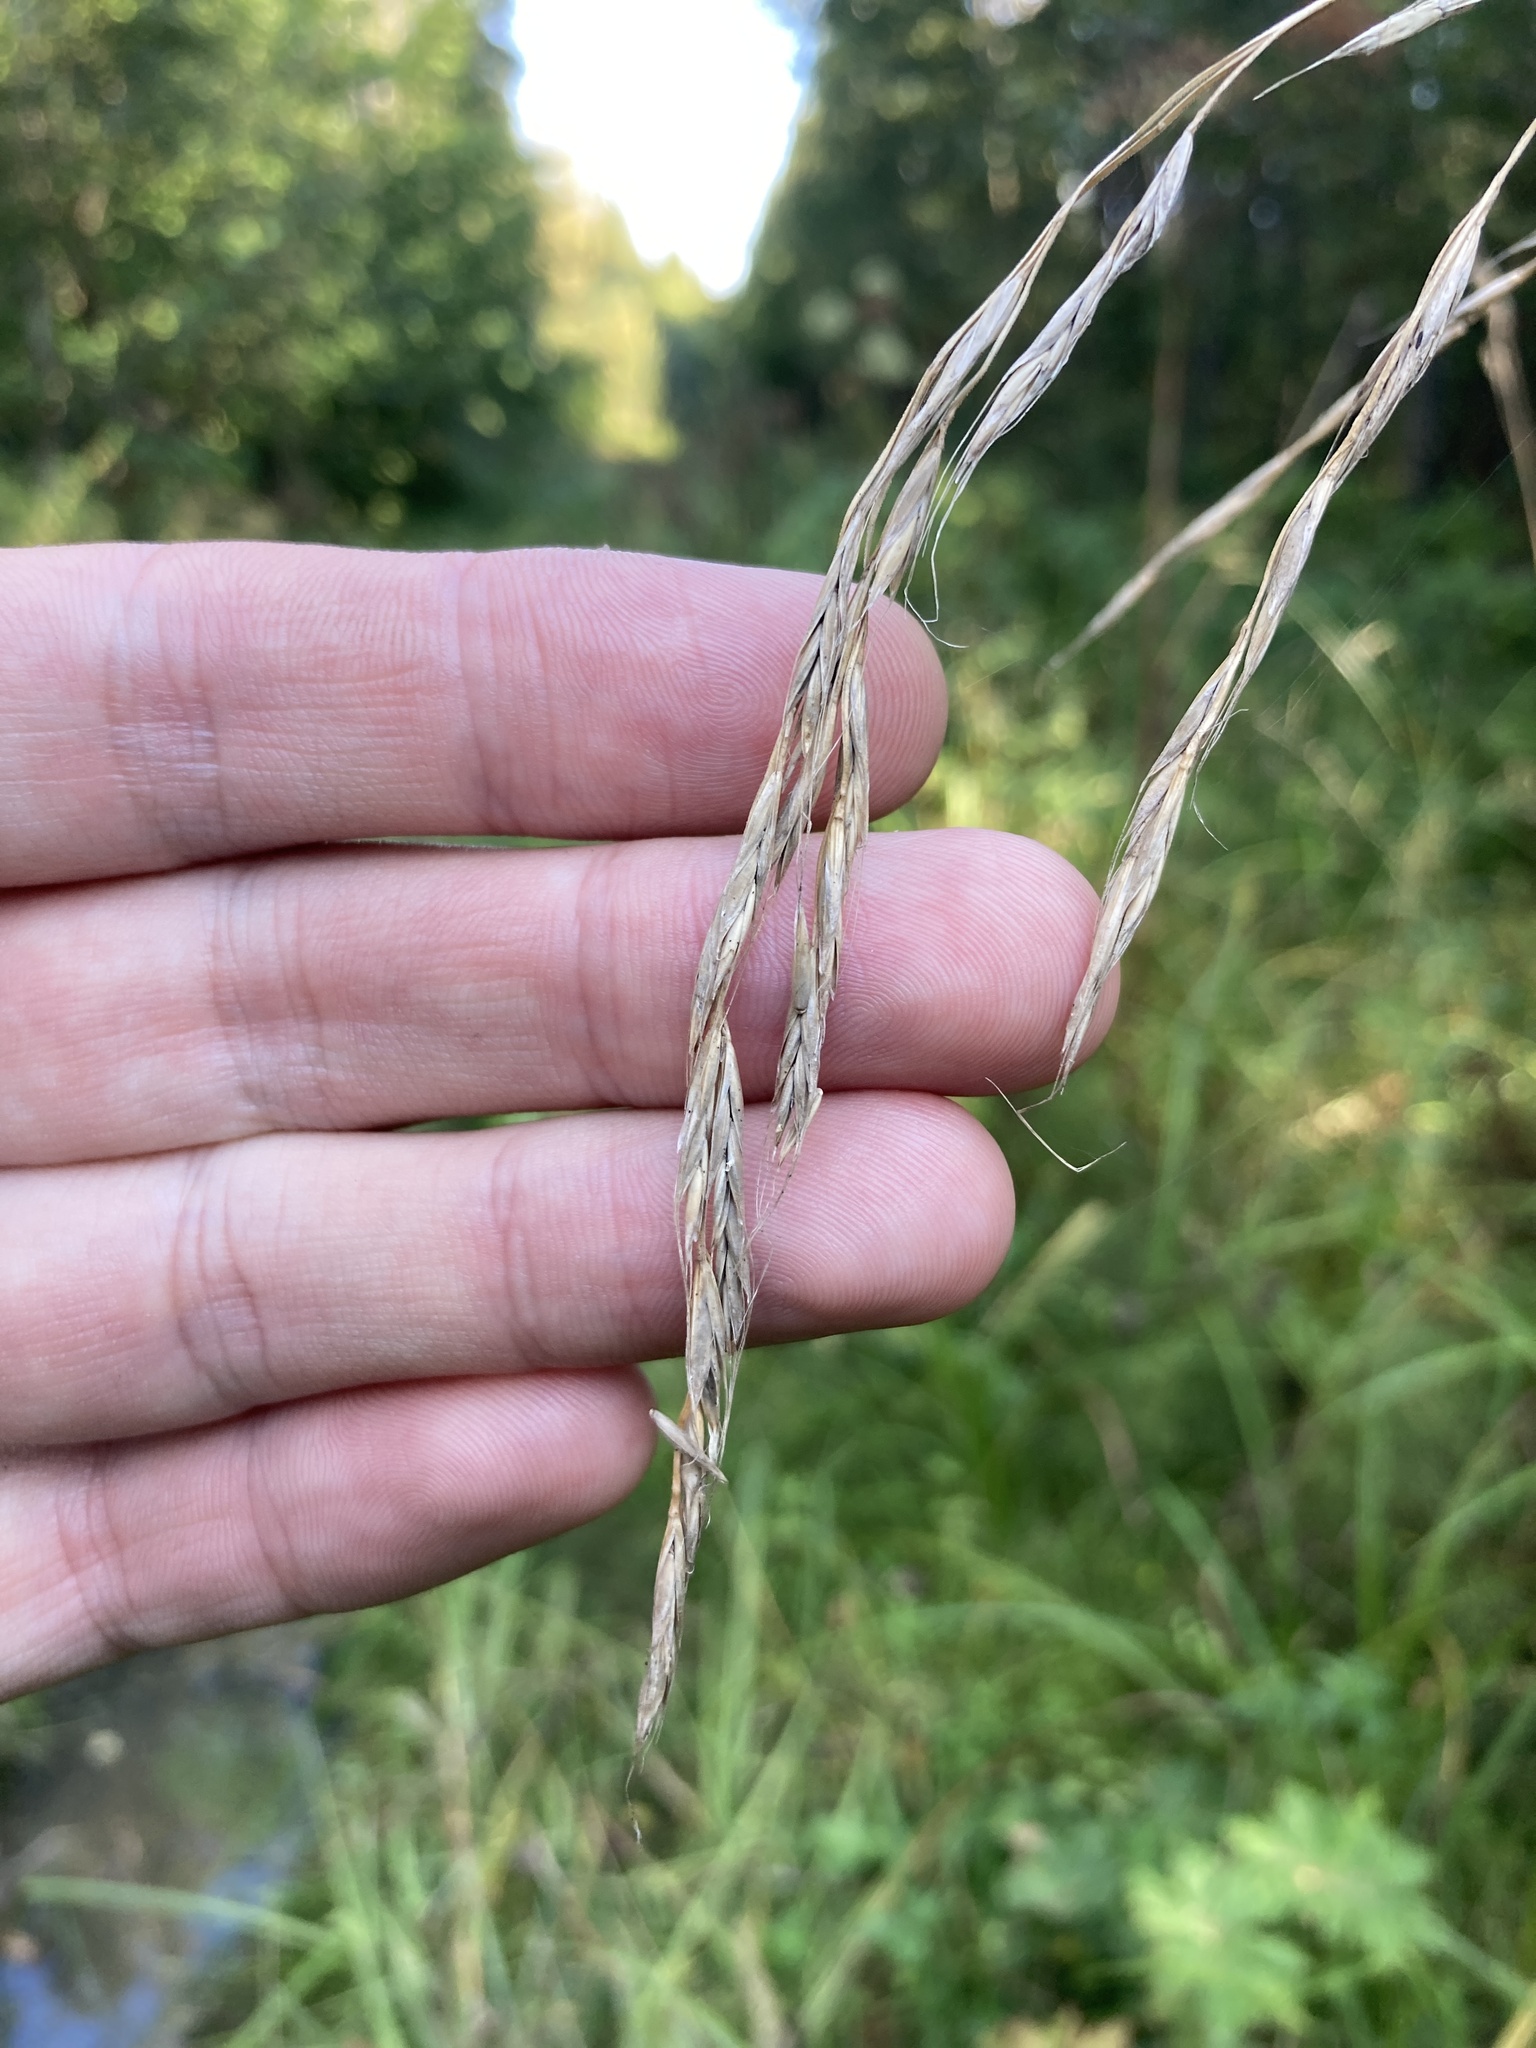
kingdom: Plantae
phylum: Tracheophyta
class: Liliopsida
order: Poales
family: Poaceae
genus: Lolium
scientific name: Lolium giganteum
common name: Giant fescue
